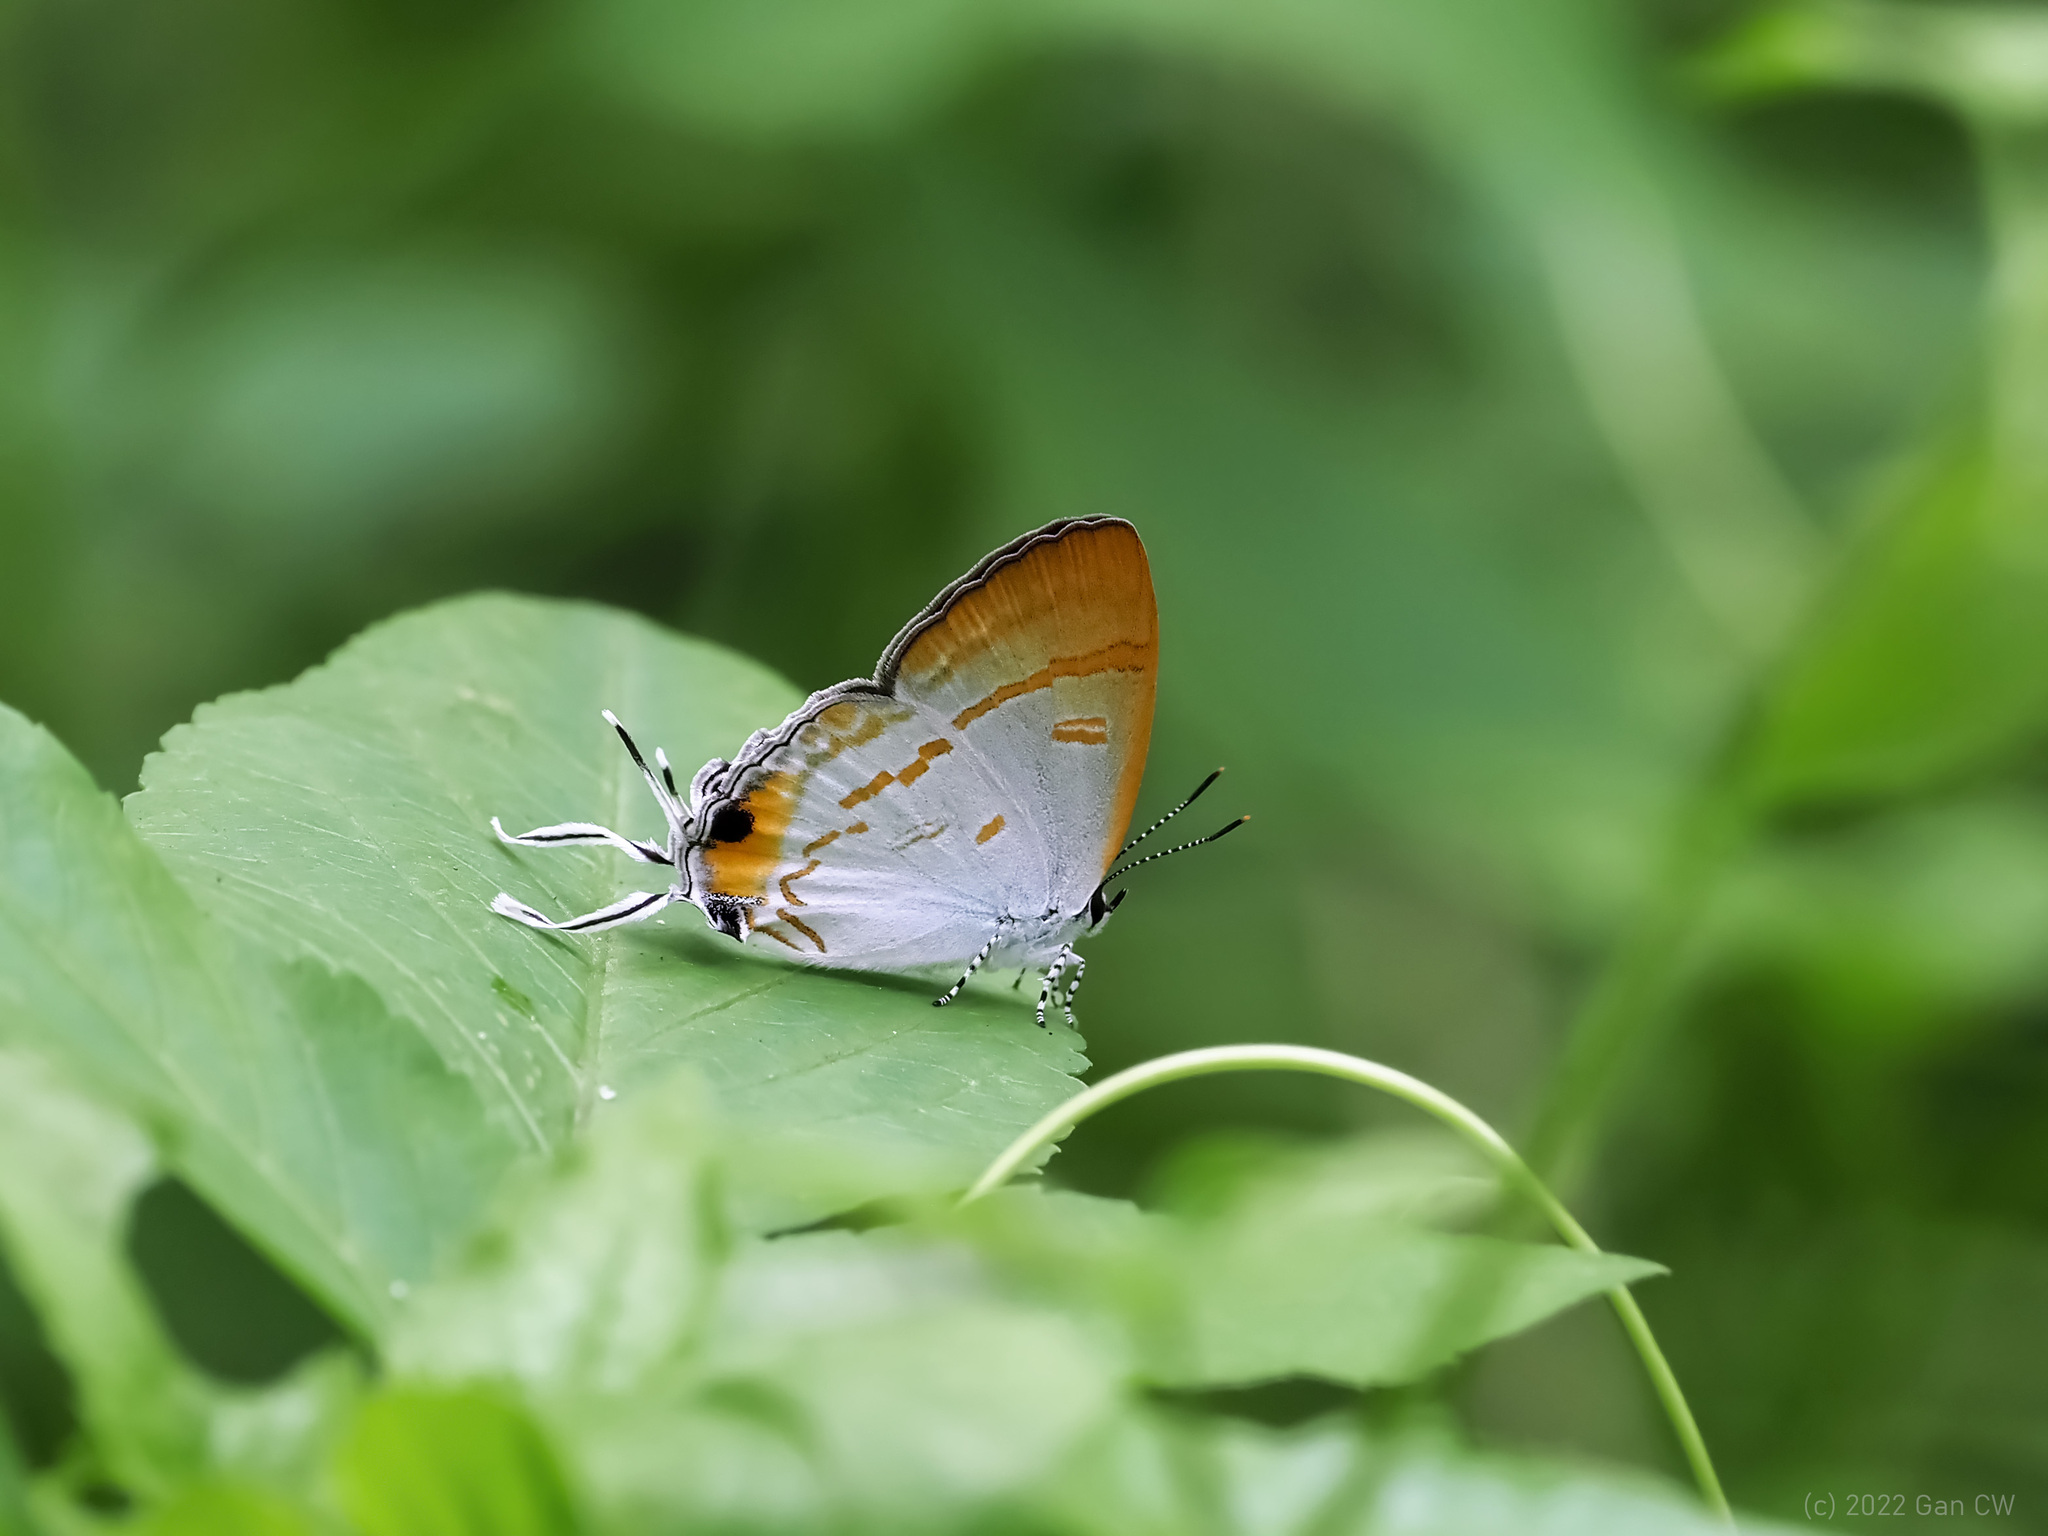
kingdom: Animalia
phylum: Arthropoda
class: Insecta
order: Lepidoptera
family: Lycaenidae
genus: Hypolycaena
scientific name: Hypolycaena thecloides
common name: Dark tit
